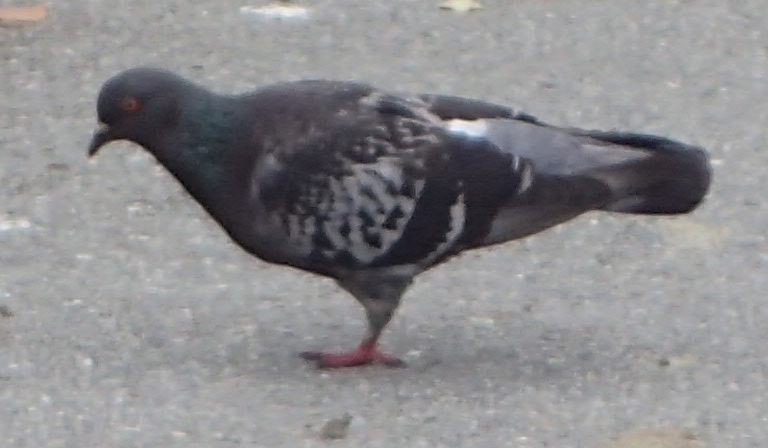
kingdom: Animalia
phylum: Chordata
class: Aves
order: Columbiformes
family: Columbidae
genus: Columba
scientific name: Columba livia
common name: Rock pigeon
